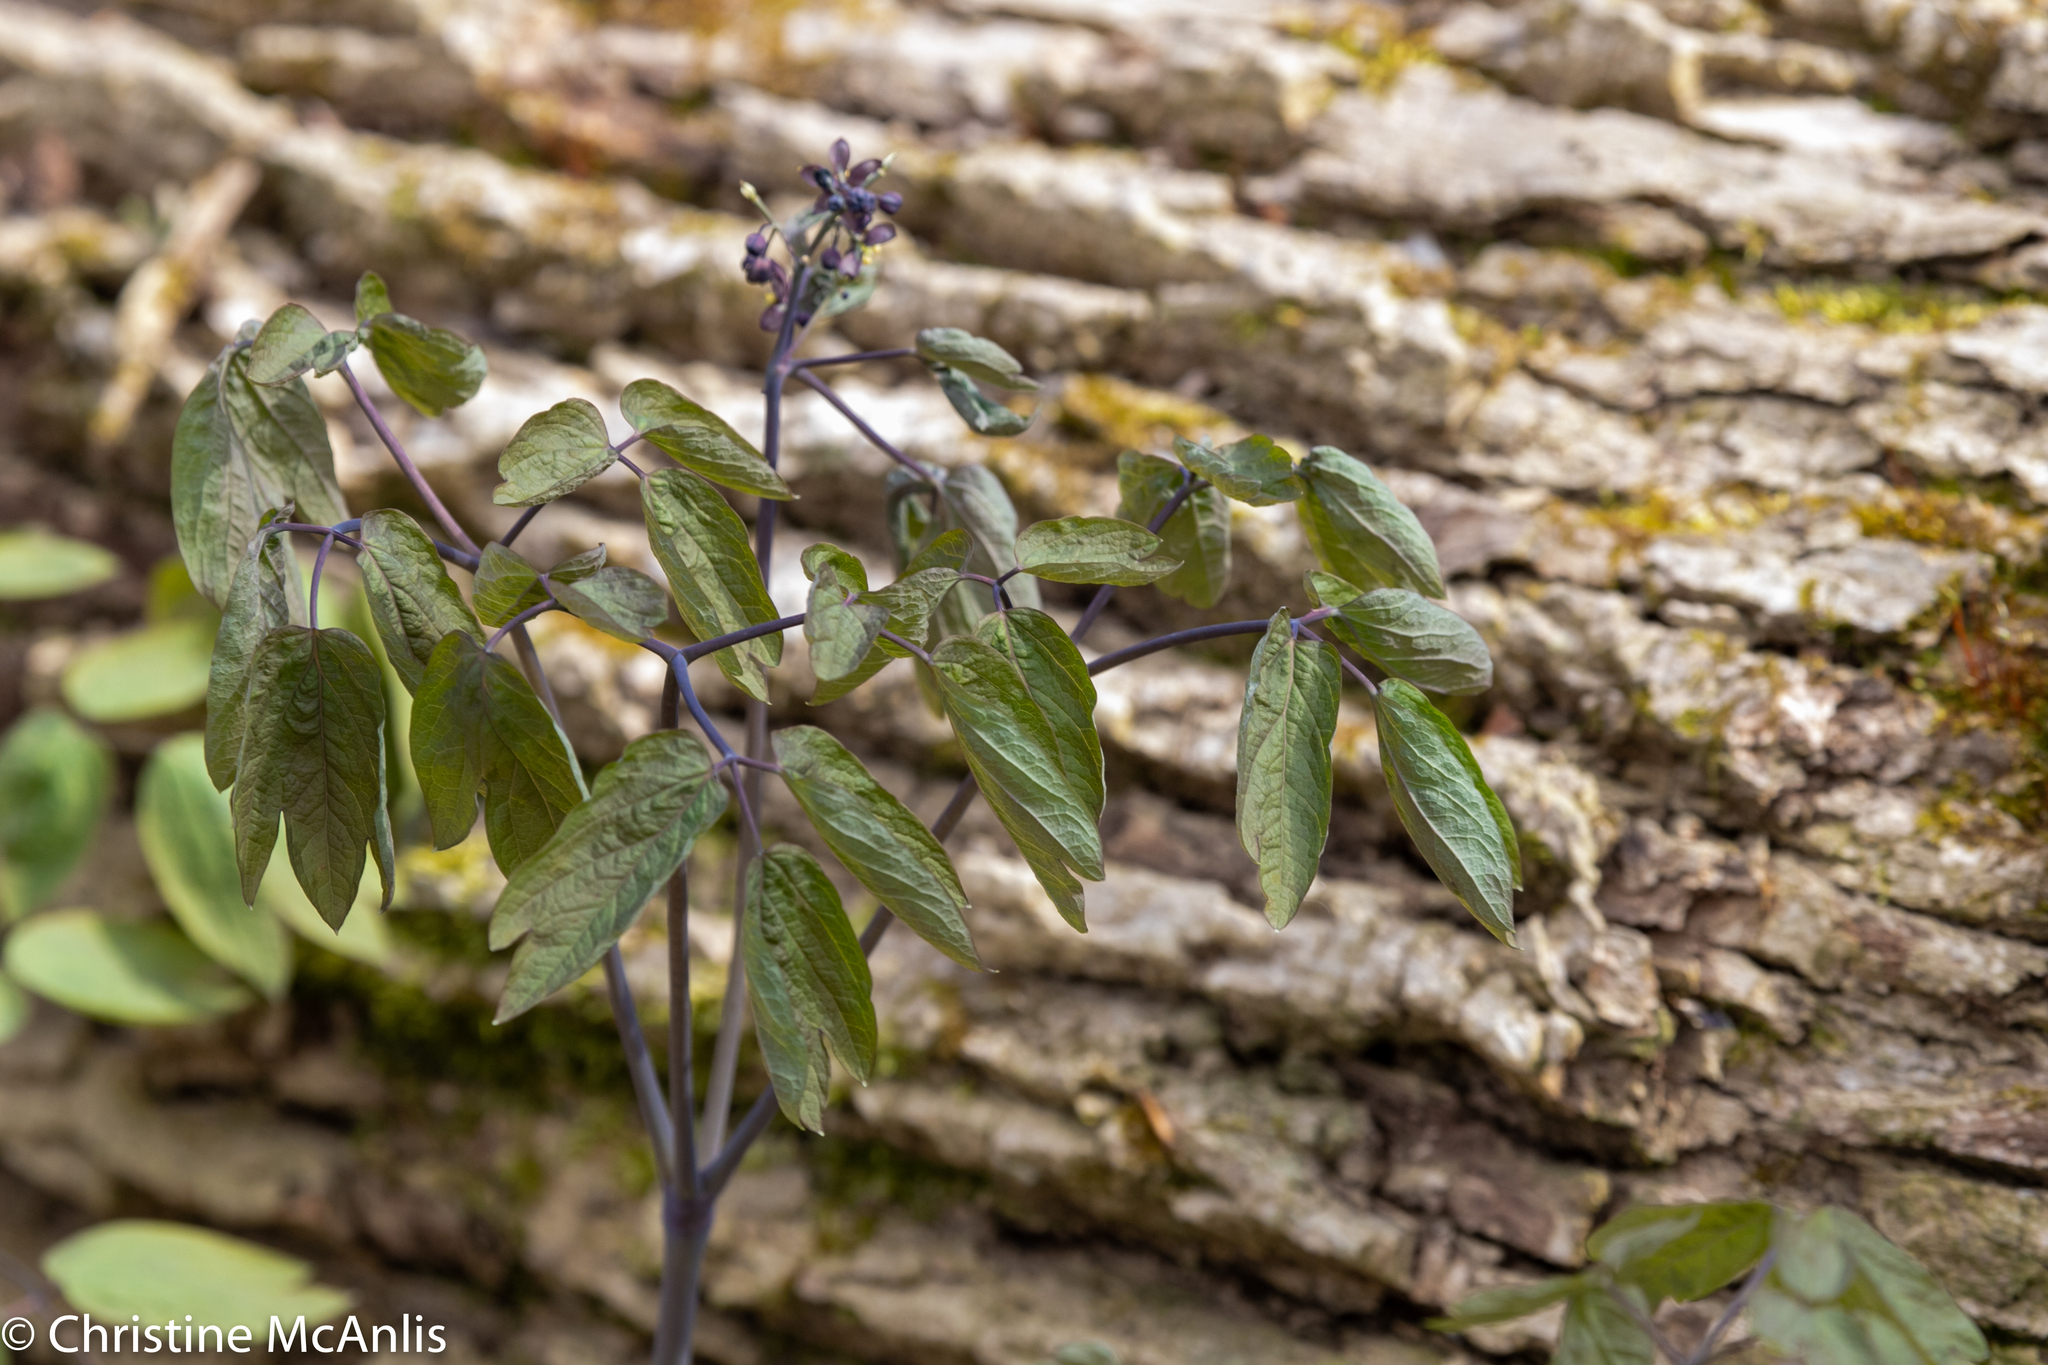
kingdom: Plantae
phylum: Tracheophyta
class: Magnoliopsida
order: Ranunculales
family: Berberidaceae
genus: Caulophyllum
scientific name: Caulophyllum giganteum
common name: Blue cohosh
